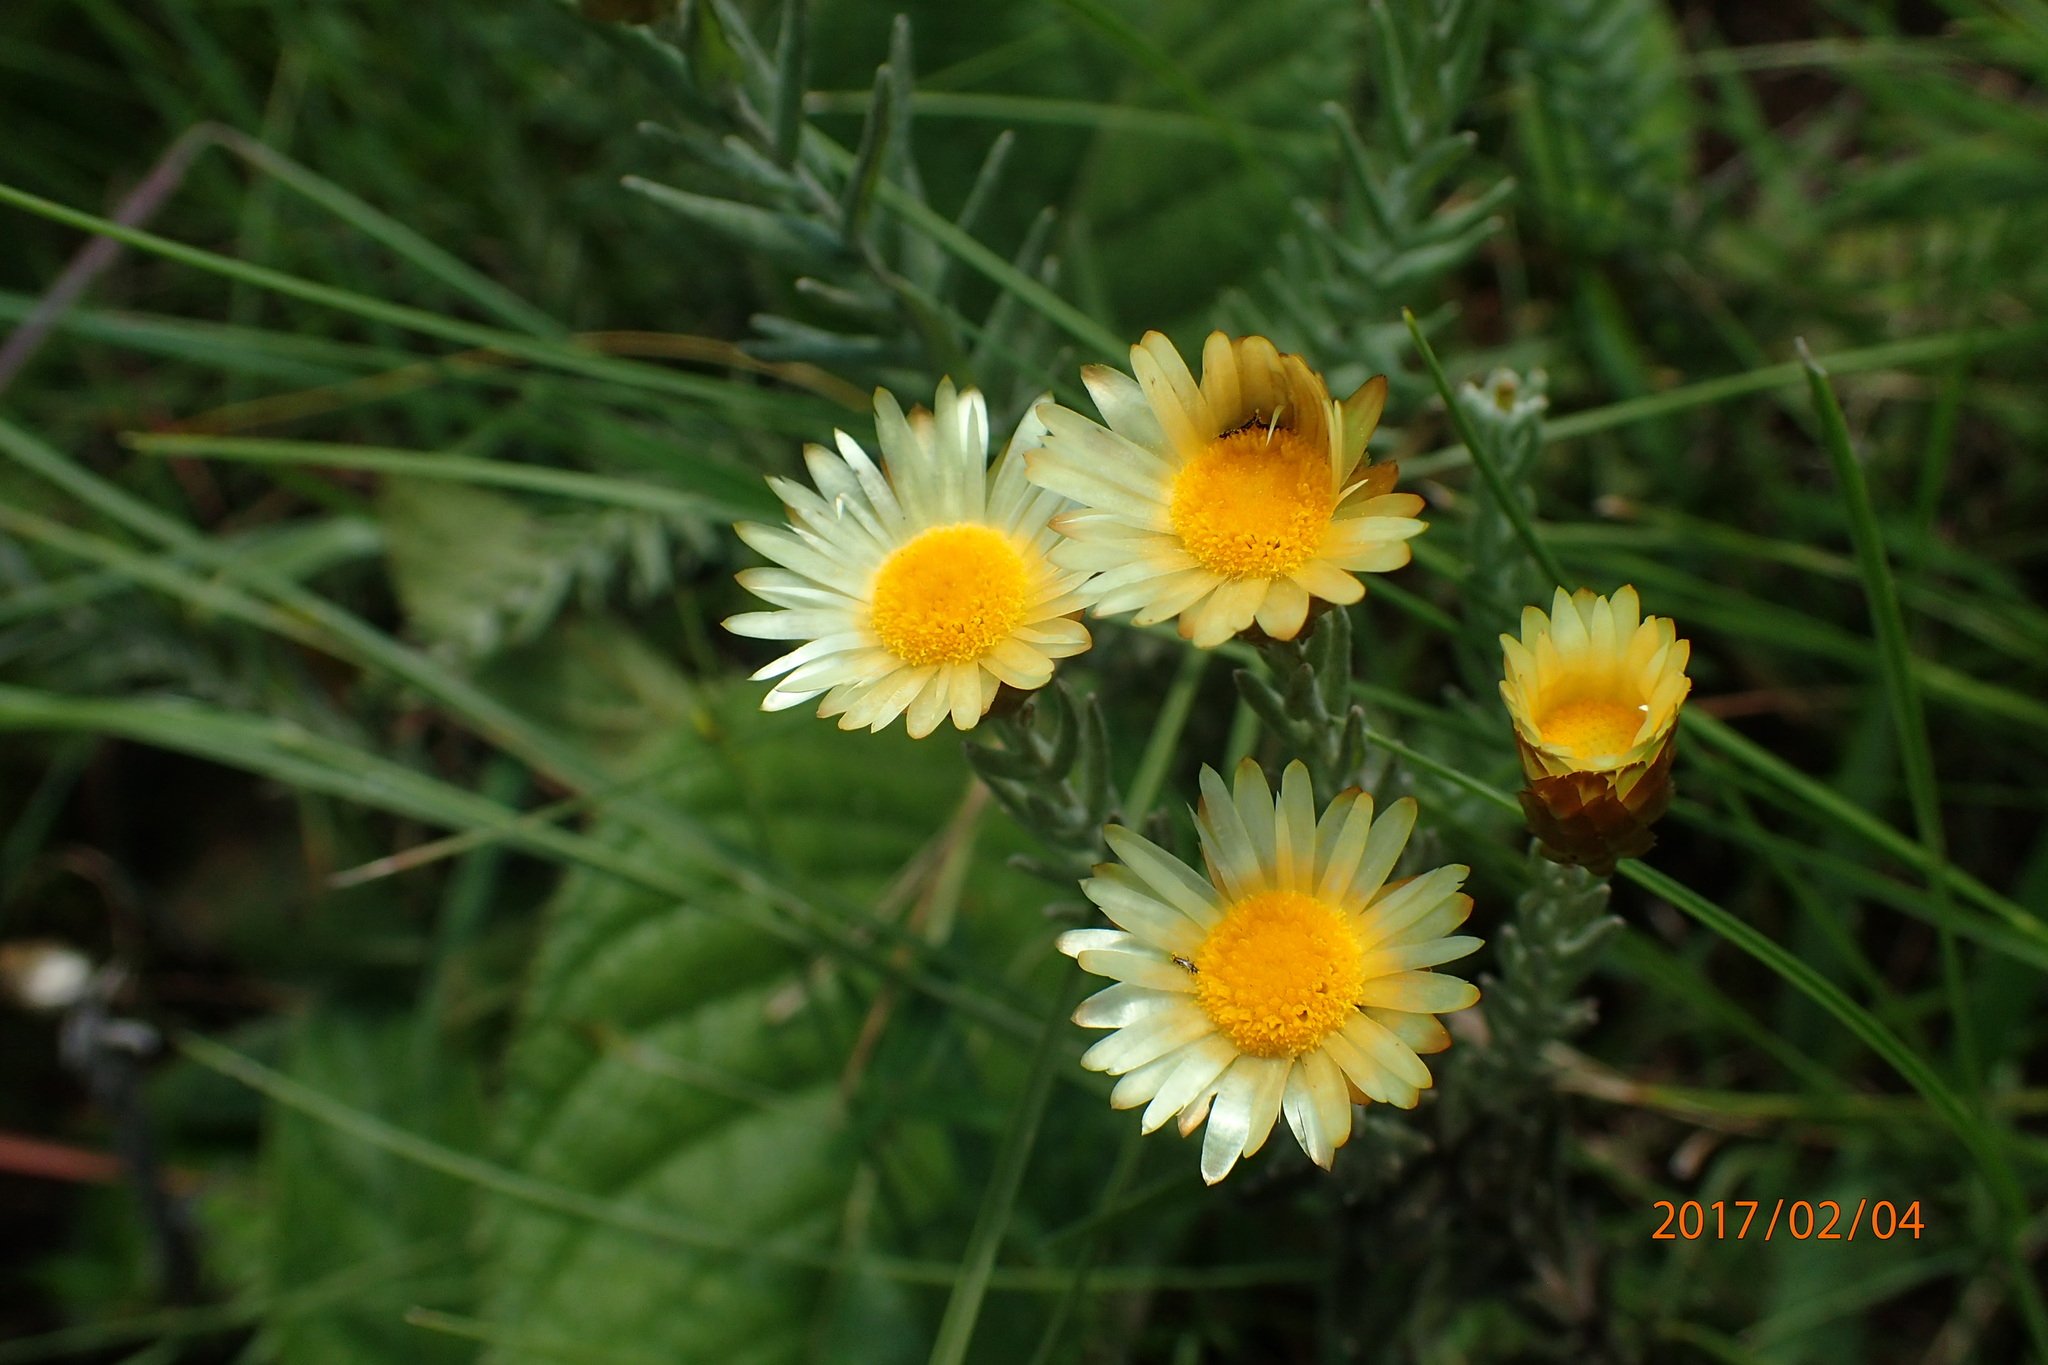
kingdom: Plantae
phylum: Tracheophyta
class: Magnoliopsida
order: Asterales
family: Asteraceae
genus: Helichrysum
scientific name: Helichrysum herbaceum
